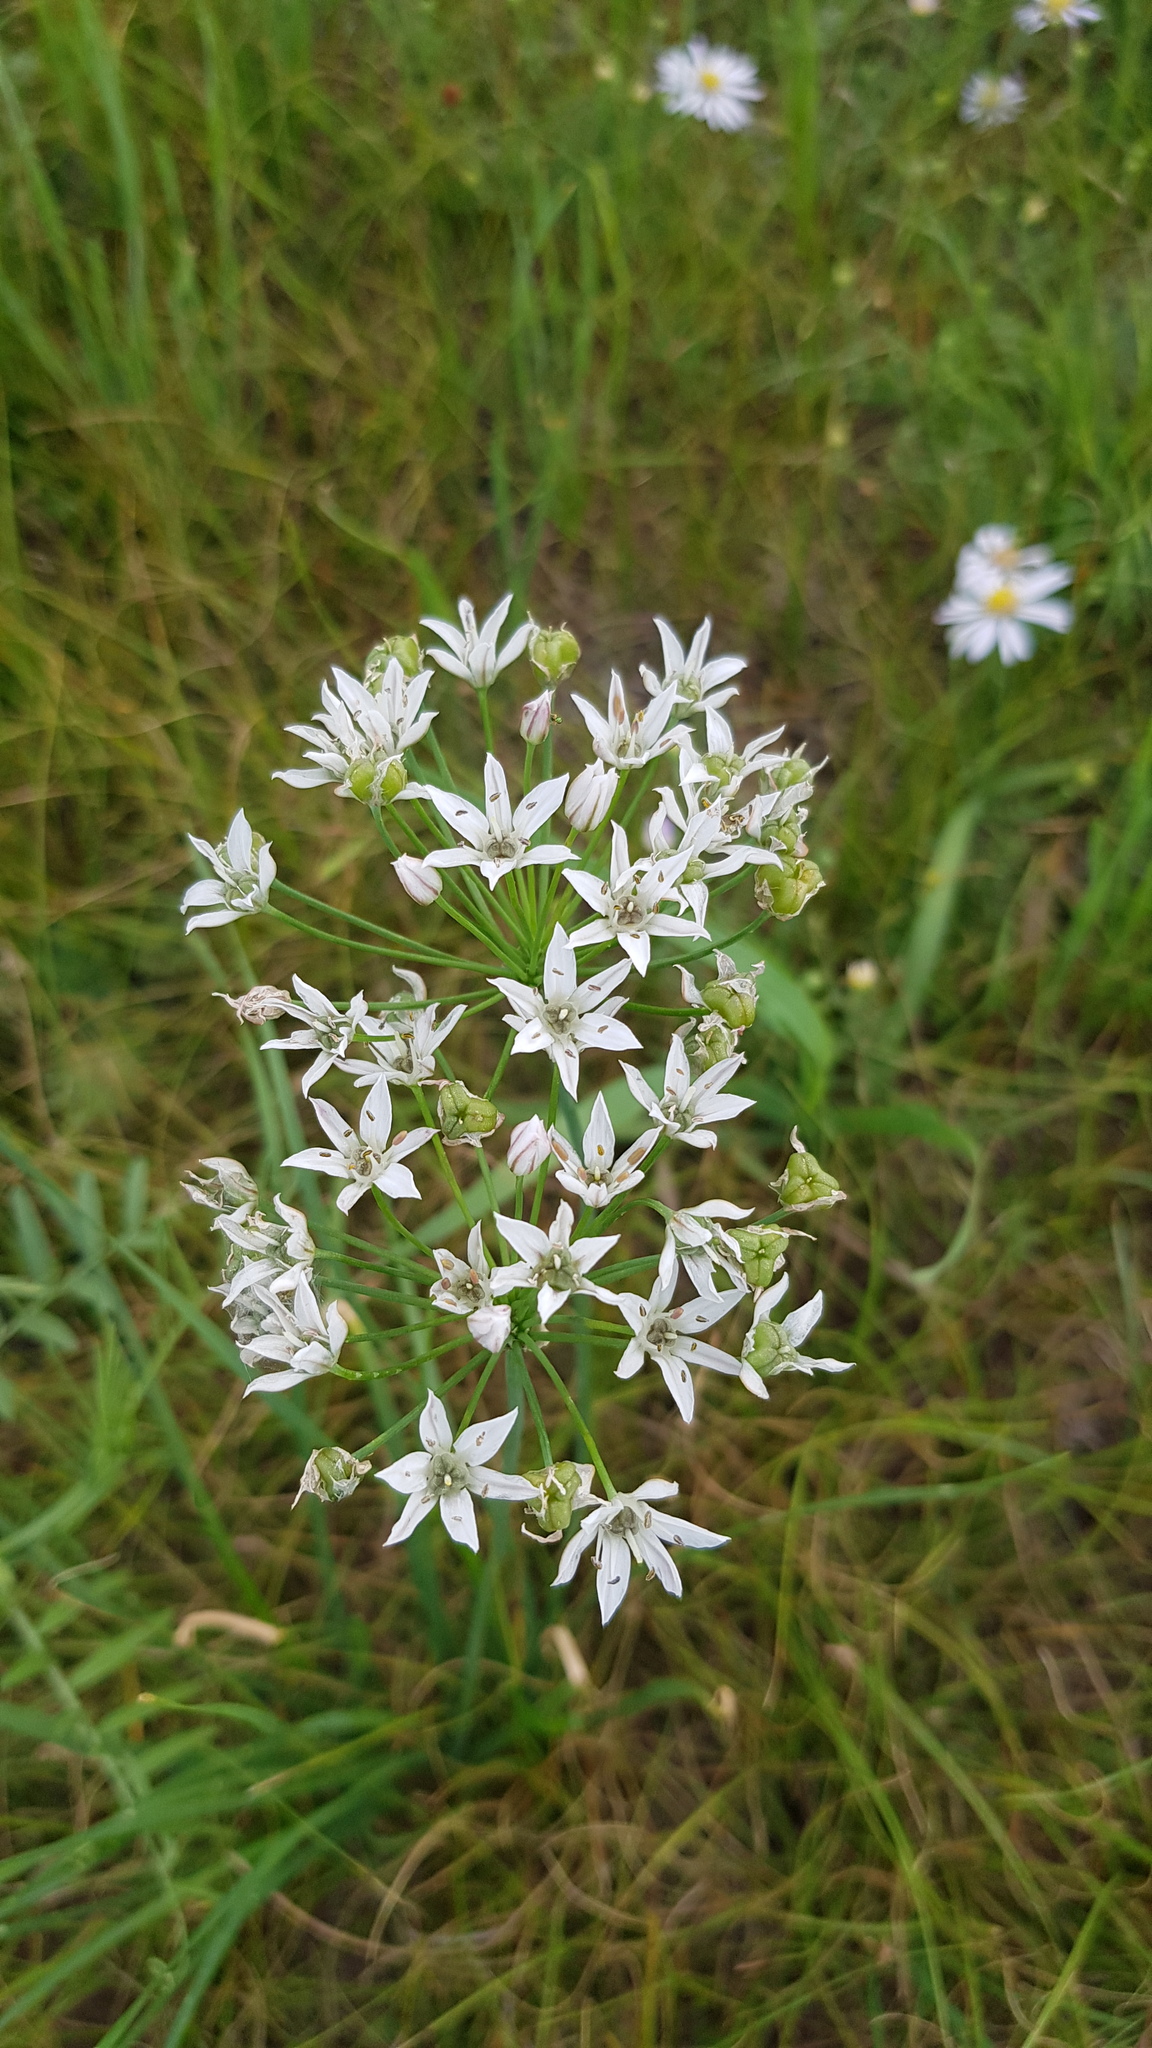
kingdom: Plantae
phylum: Tracheophyta
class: Liliopsida
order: Asparagales
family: Amaryllidaceae
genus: Allium
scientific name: Allium ramosum
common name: Fragrant garlic
